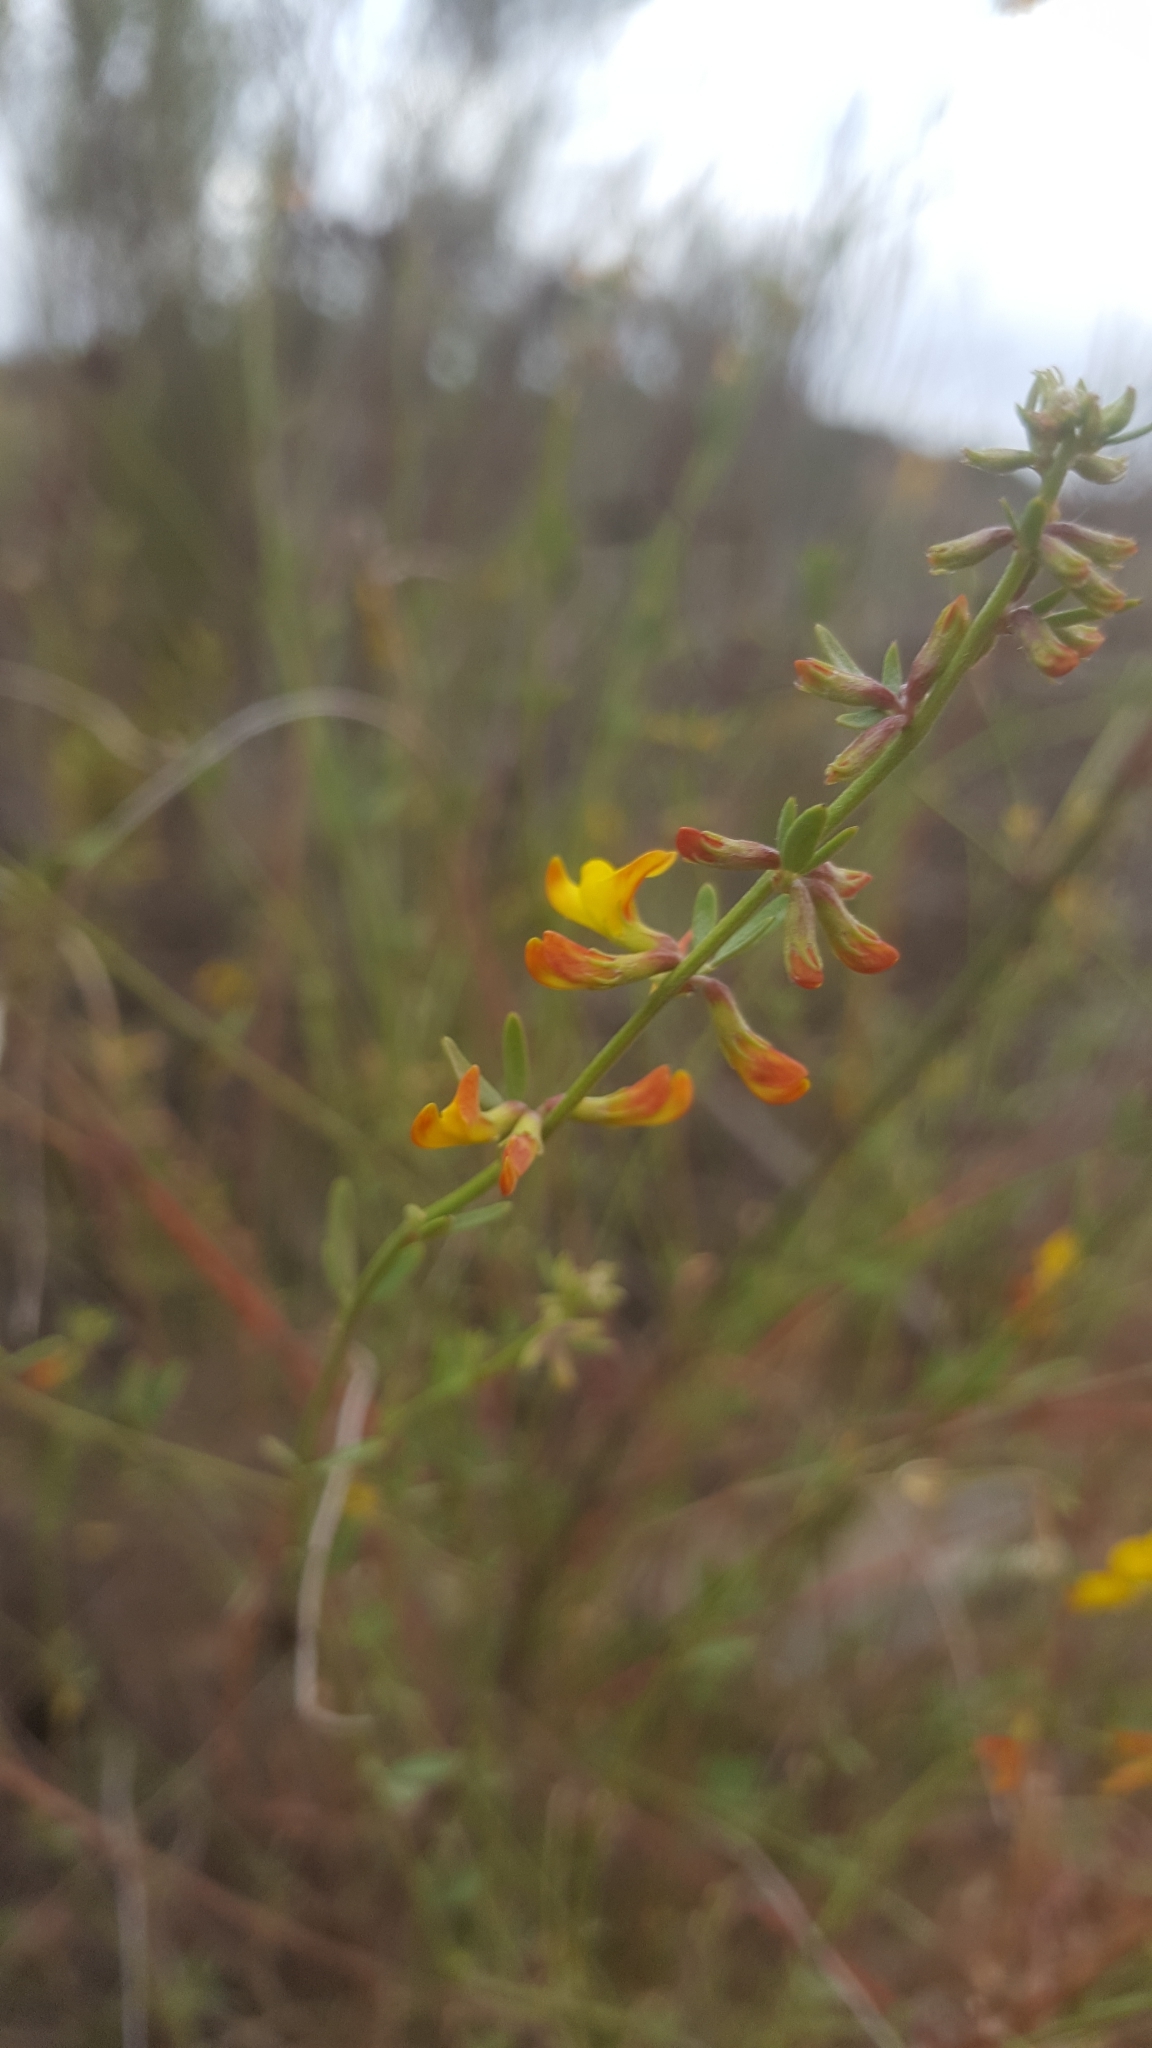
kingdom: Plantae
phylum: Tracheophyta
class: Magnoliopsida
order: Fabales
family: Fabaceae
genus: Acmispon
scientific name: Acmispon glaber
